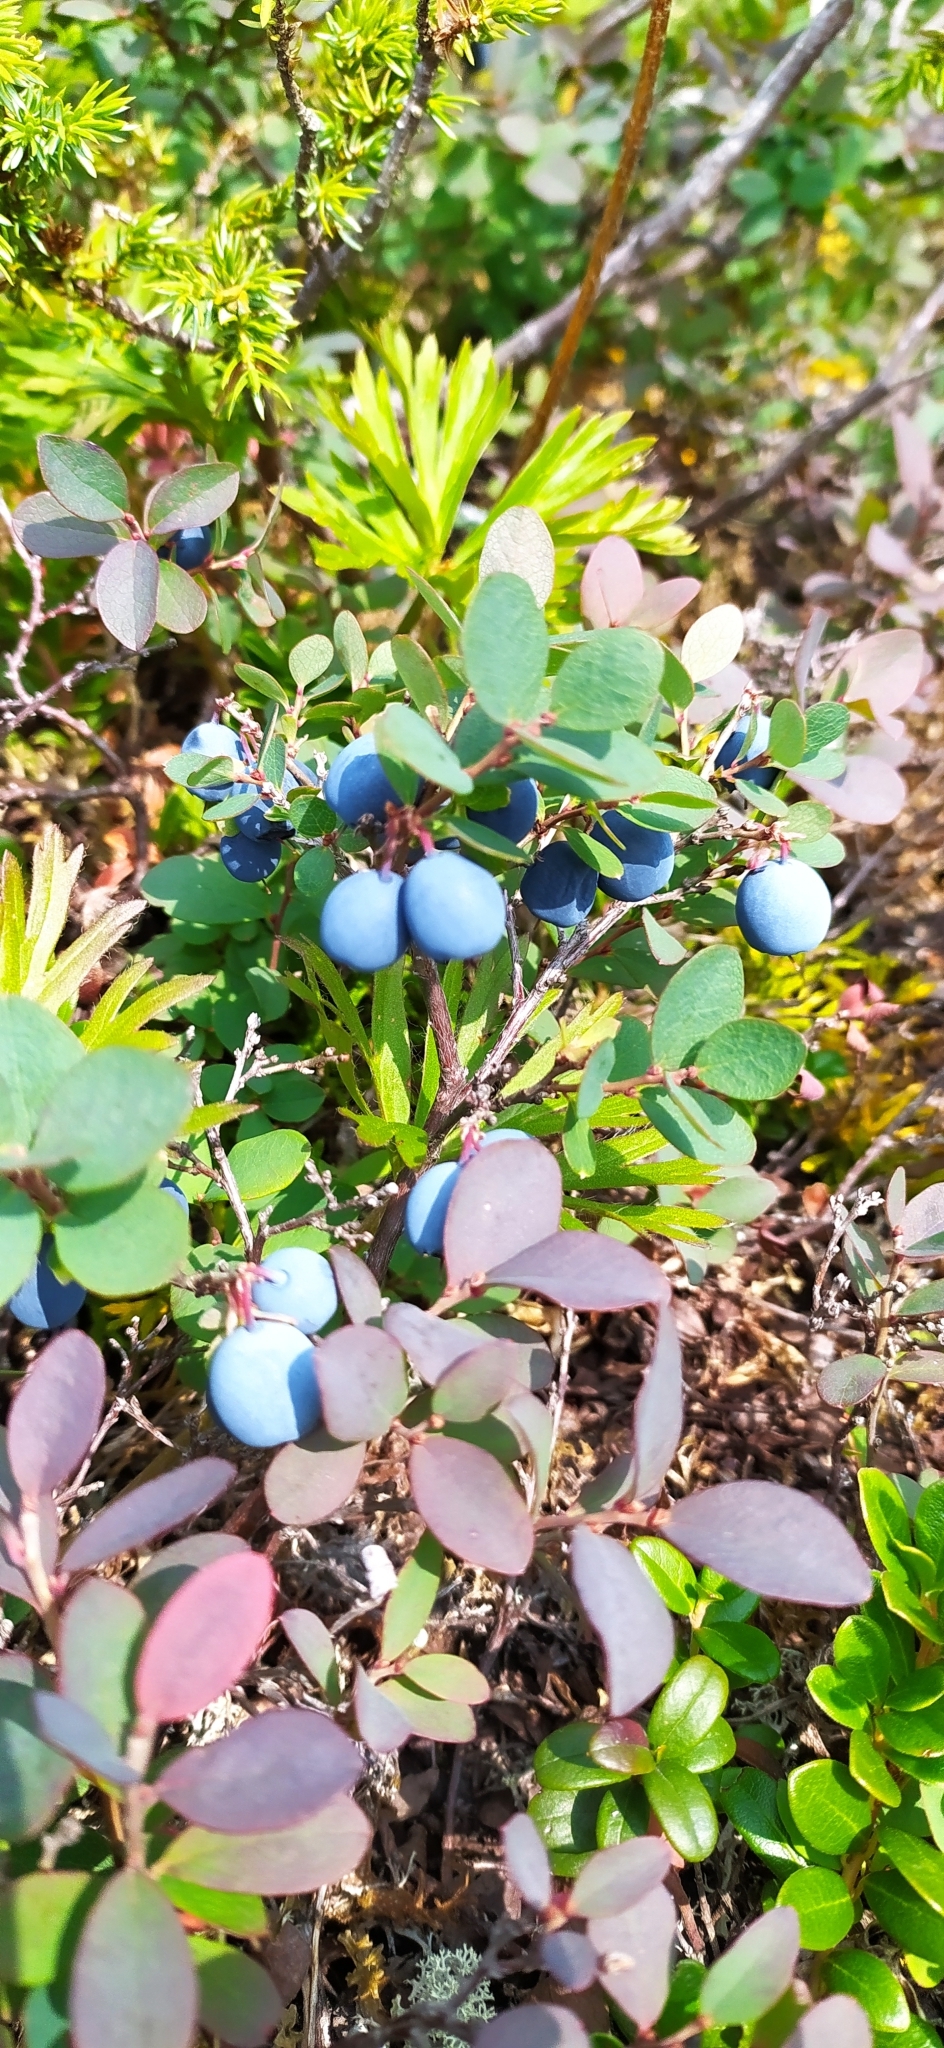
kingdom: Plantae
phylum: Tracheophyta
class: Magnoliopsida
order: Ericales
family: Ericaceae
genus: Vaccinium
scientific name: Vaccinium uliginosum
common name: Bog bilberry
